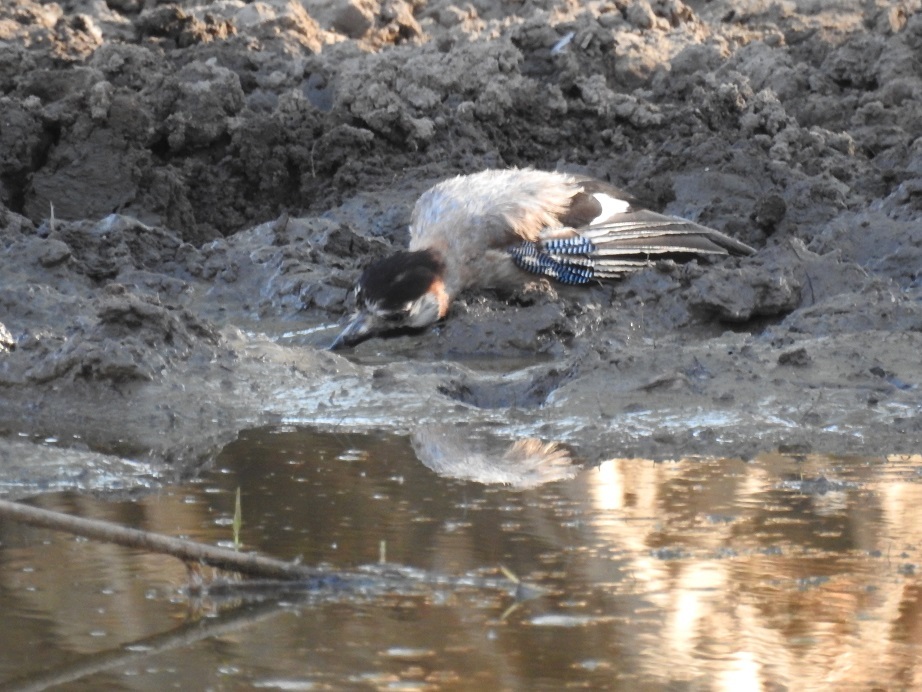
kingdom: Animalia
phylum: Chordata
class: Aves
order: Passeriformes
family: Corvidae
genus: Garrulus
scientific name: Garrulus glandarius
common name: Eurasian jay
